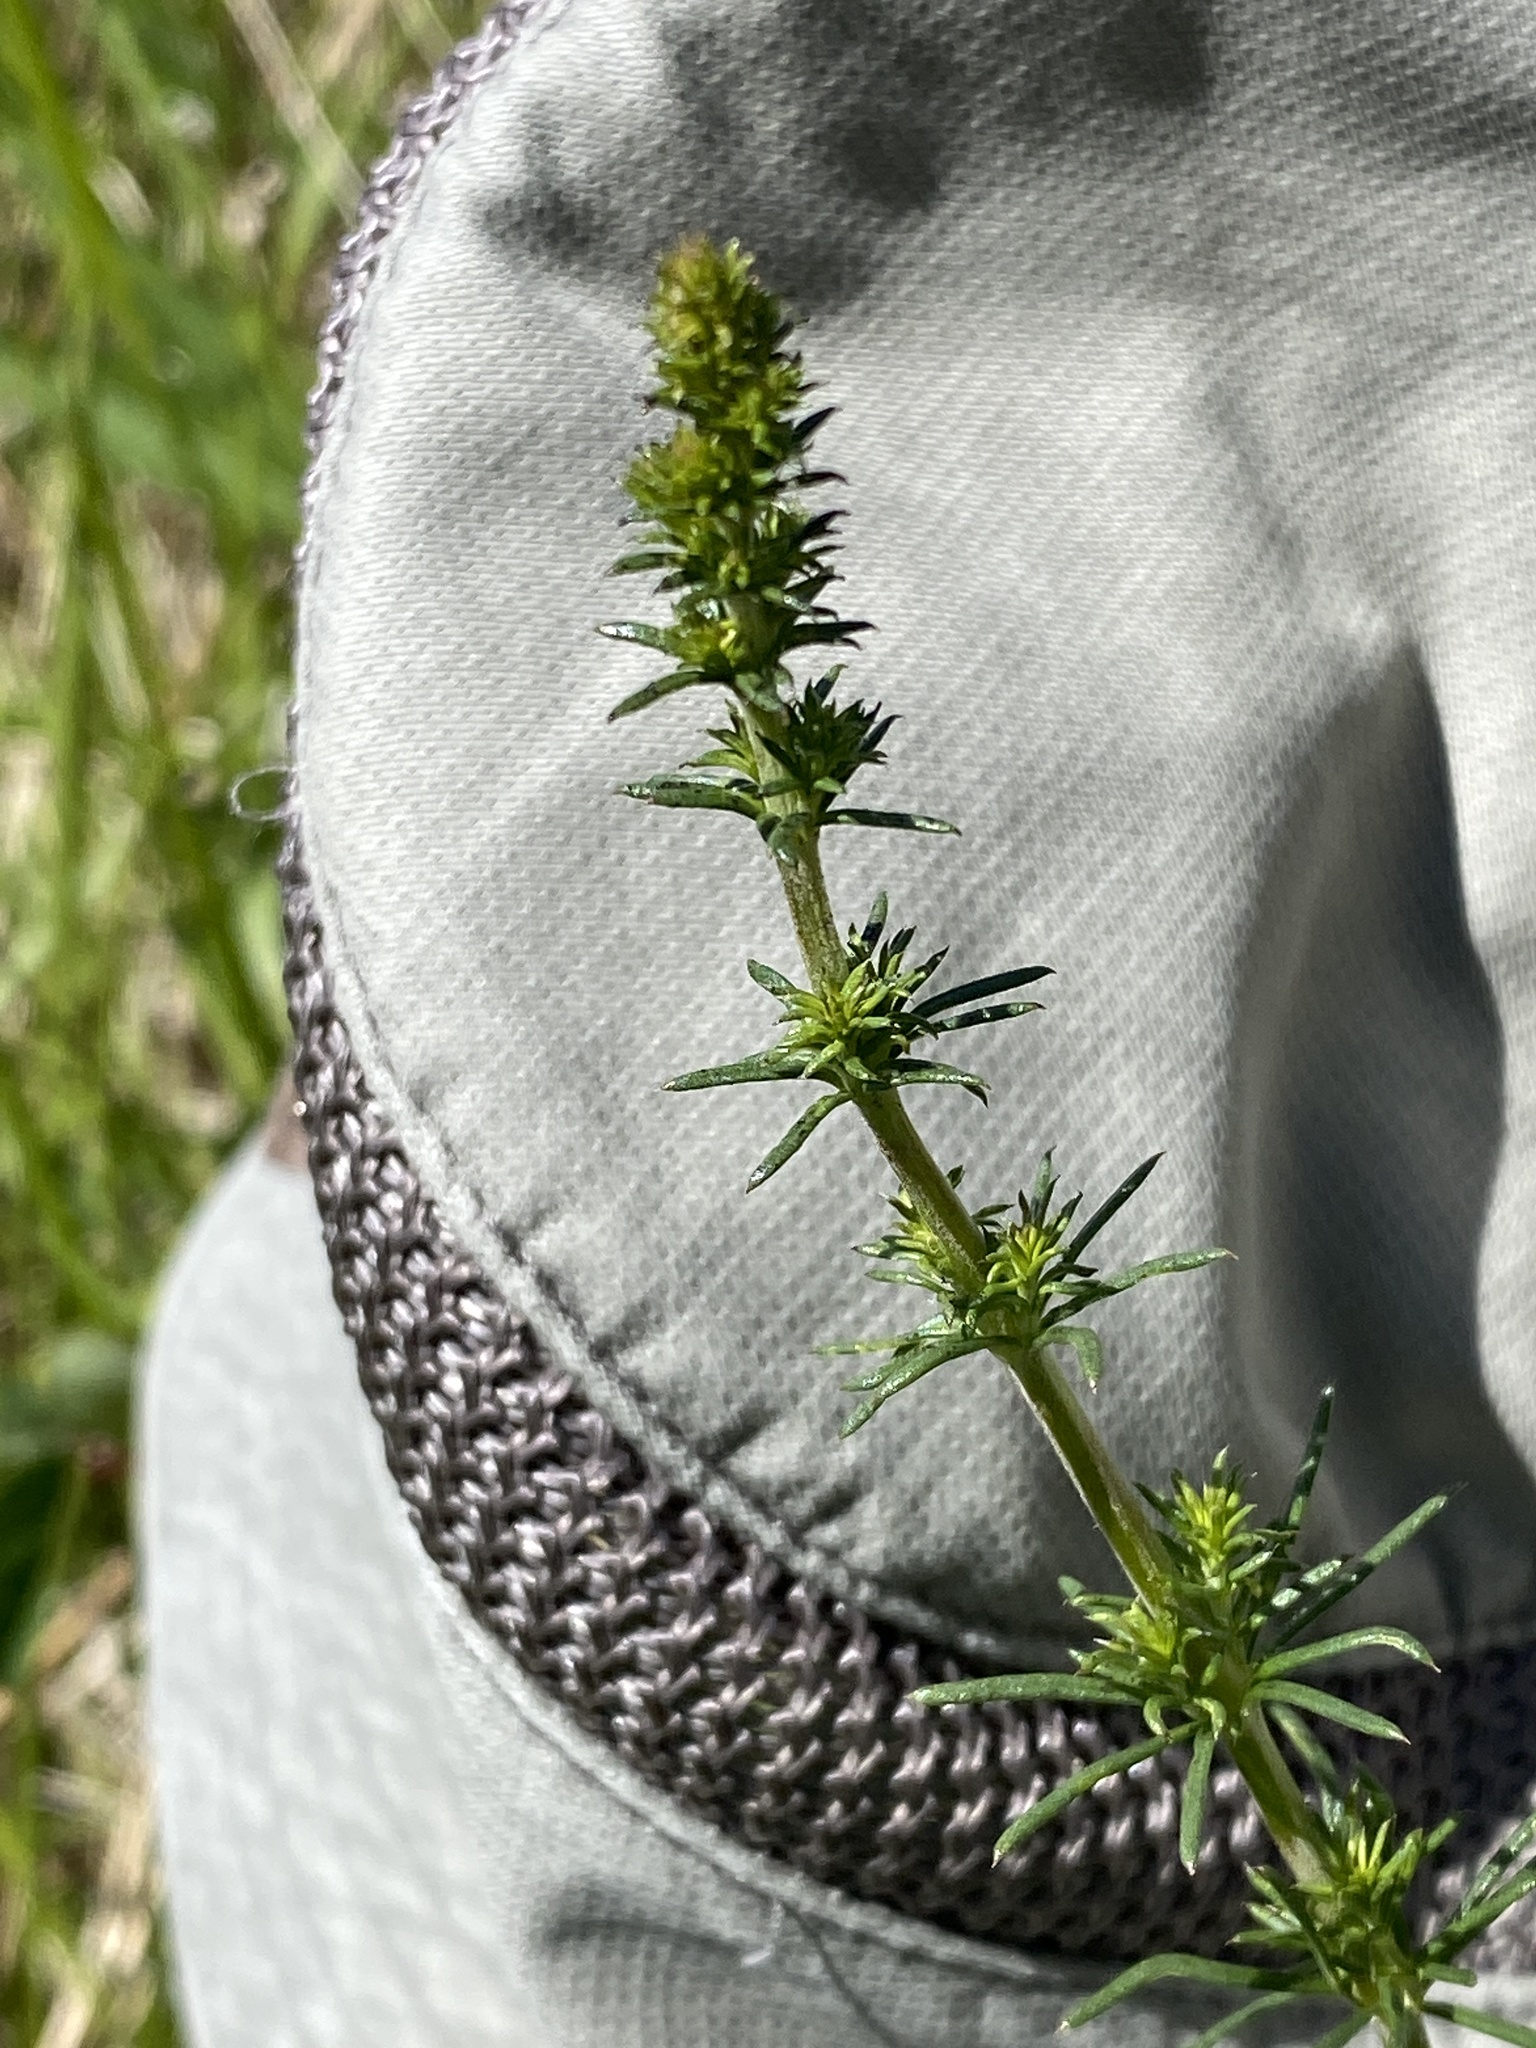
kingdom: Plantae
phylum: Tracheophyta
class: Magnoliopsida
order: Gentianales
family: Rubiaceae
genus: Galium
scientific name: Galium verum
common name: Lady's bedstraw
